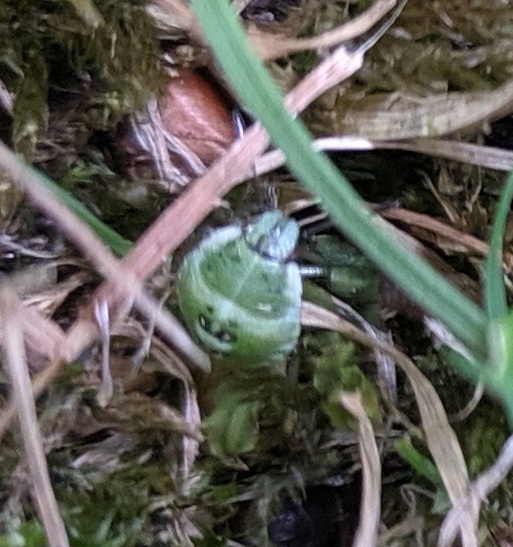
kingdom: Animalia
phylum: Arthropoda
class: Insecta
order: Hemiptera
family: Pentatomidae
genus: Palomena
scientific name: Palomena prasina
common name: Green shieldbug
